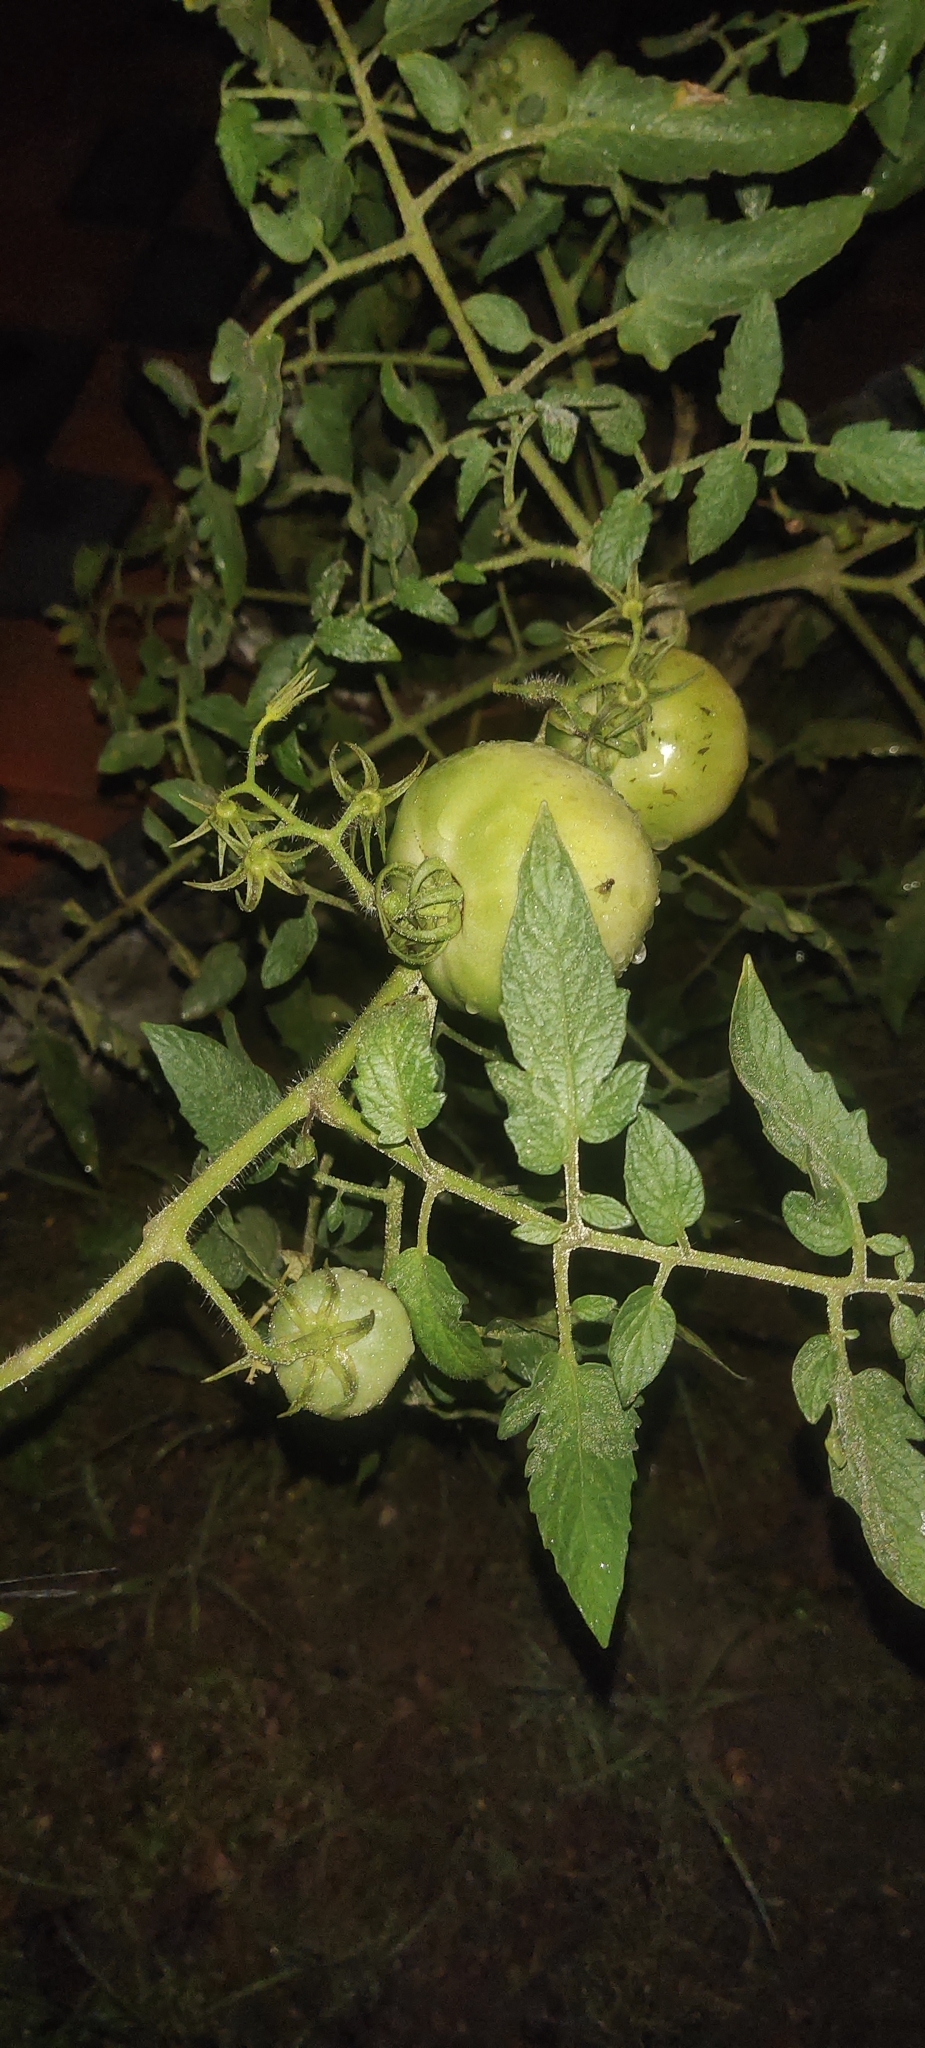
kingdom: Plantae
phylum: Tracheophyta
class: Magnoliopsida
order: Solanales
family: Solanaceae
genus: Solanum
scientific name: Solanum lycopersicum
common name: Garden tomato
